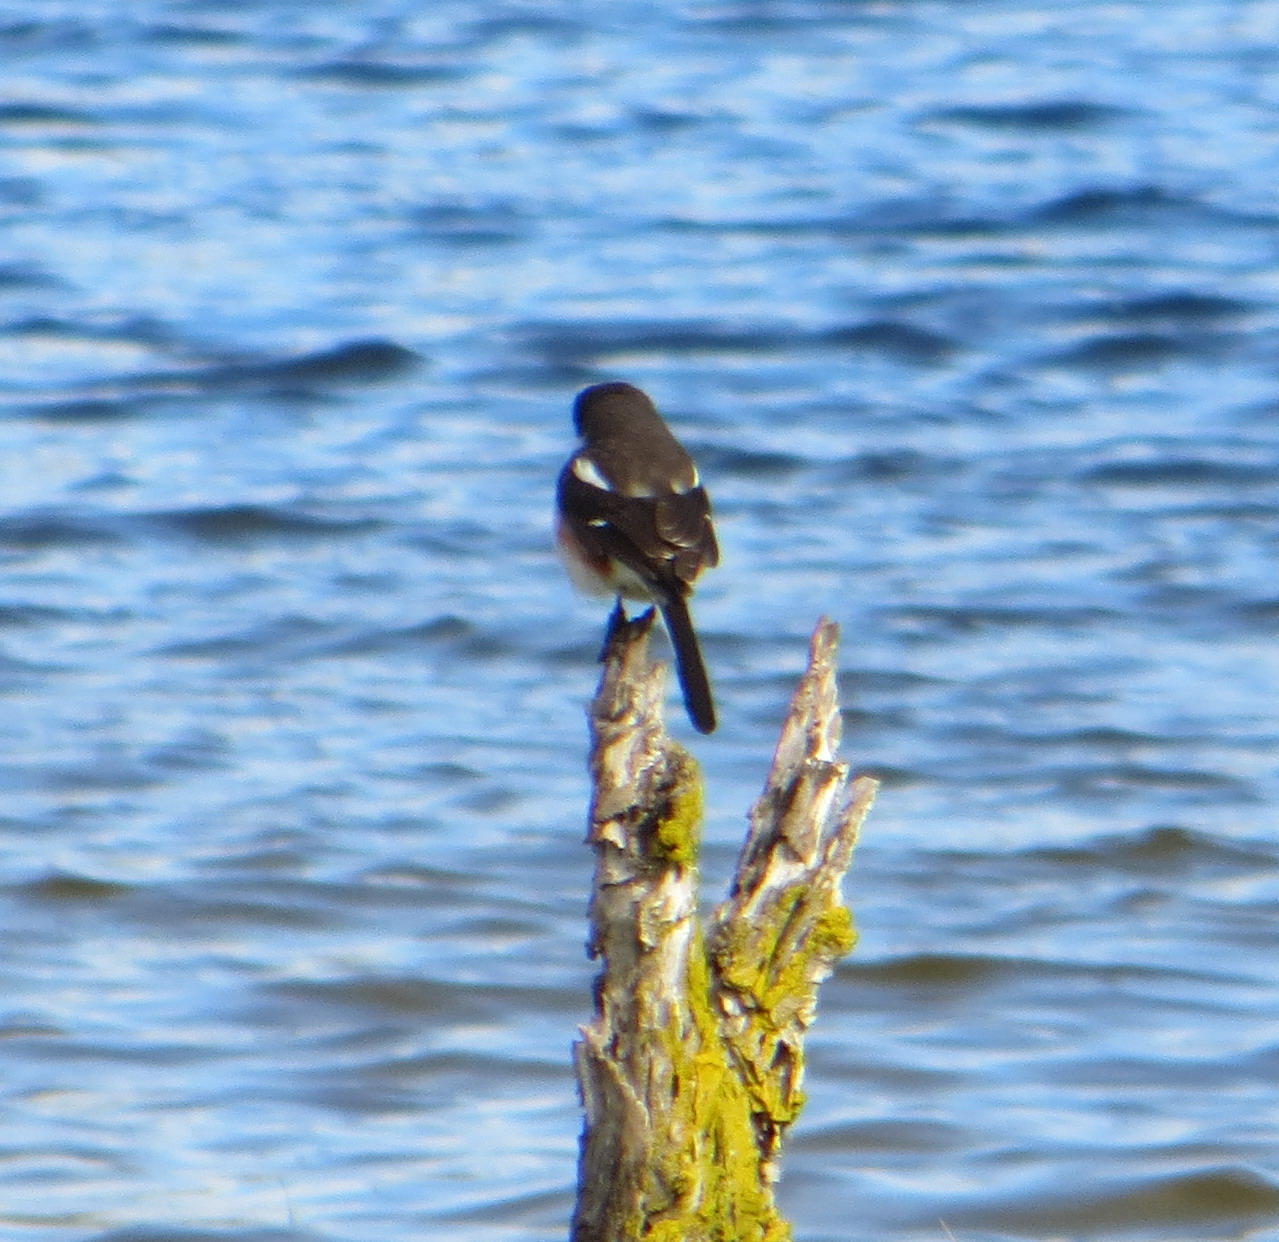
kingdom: Animalia
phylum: Chordata
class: Aves
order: Passeriformes
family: Laniidae
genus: Lanius
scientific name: Lanius collaris
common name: Southern fiscal
